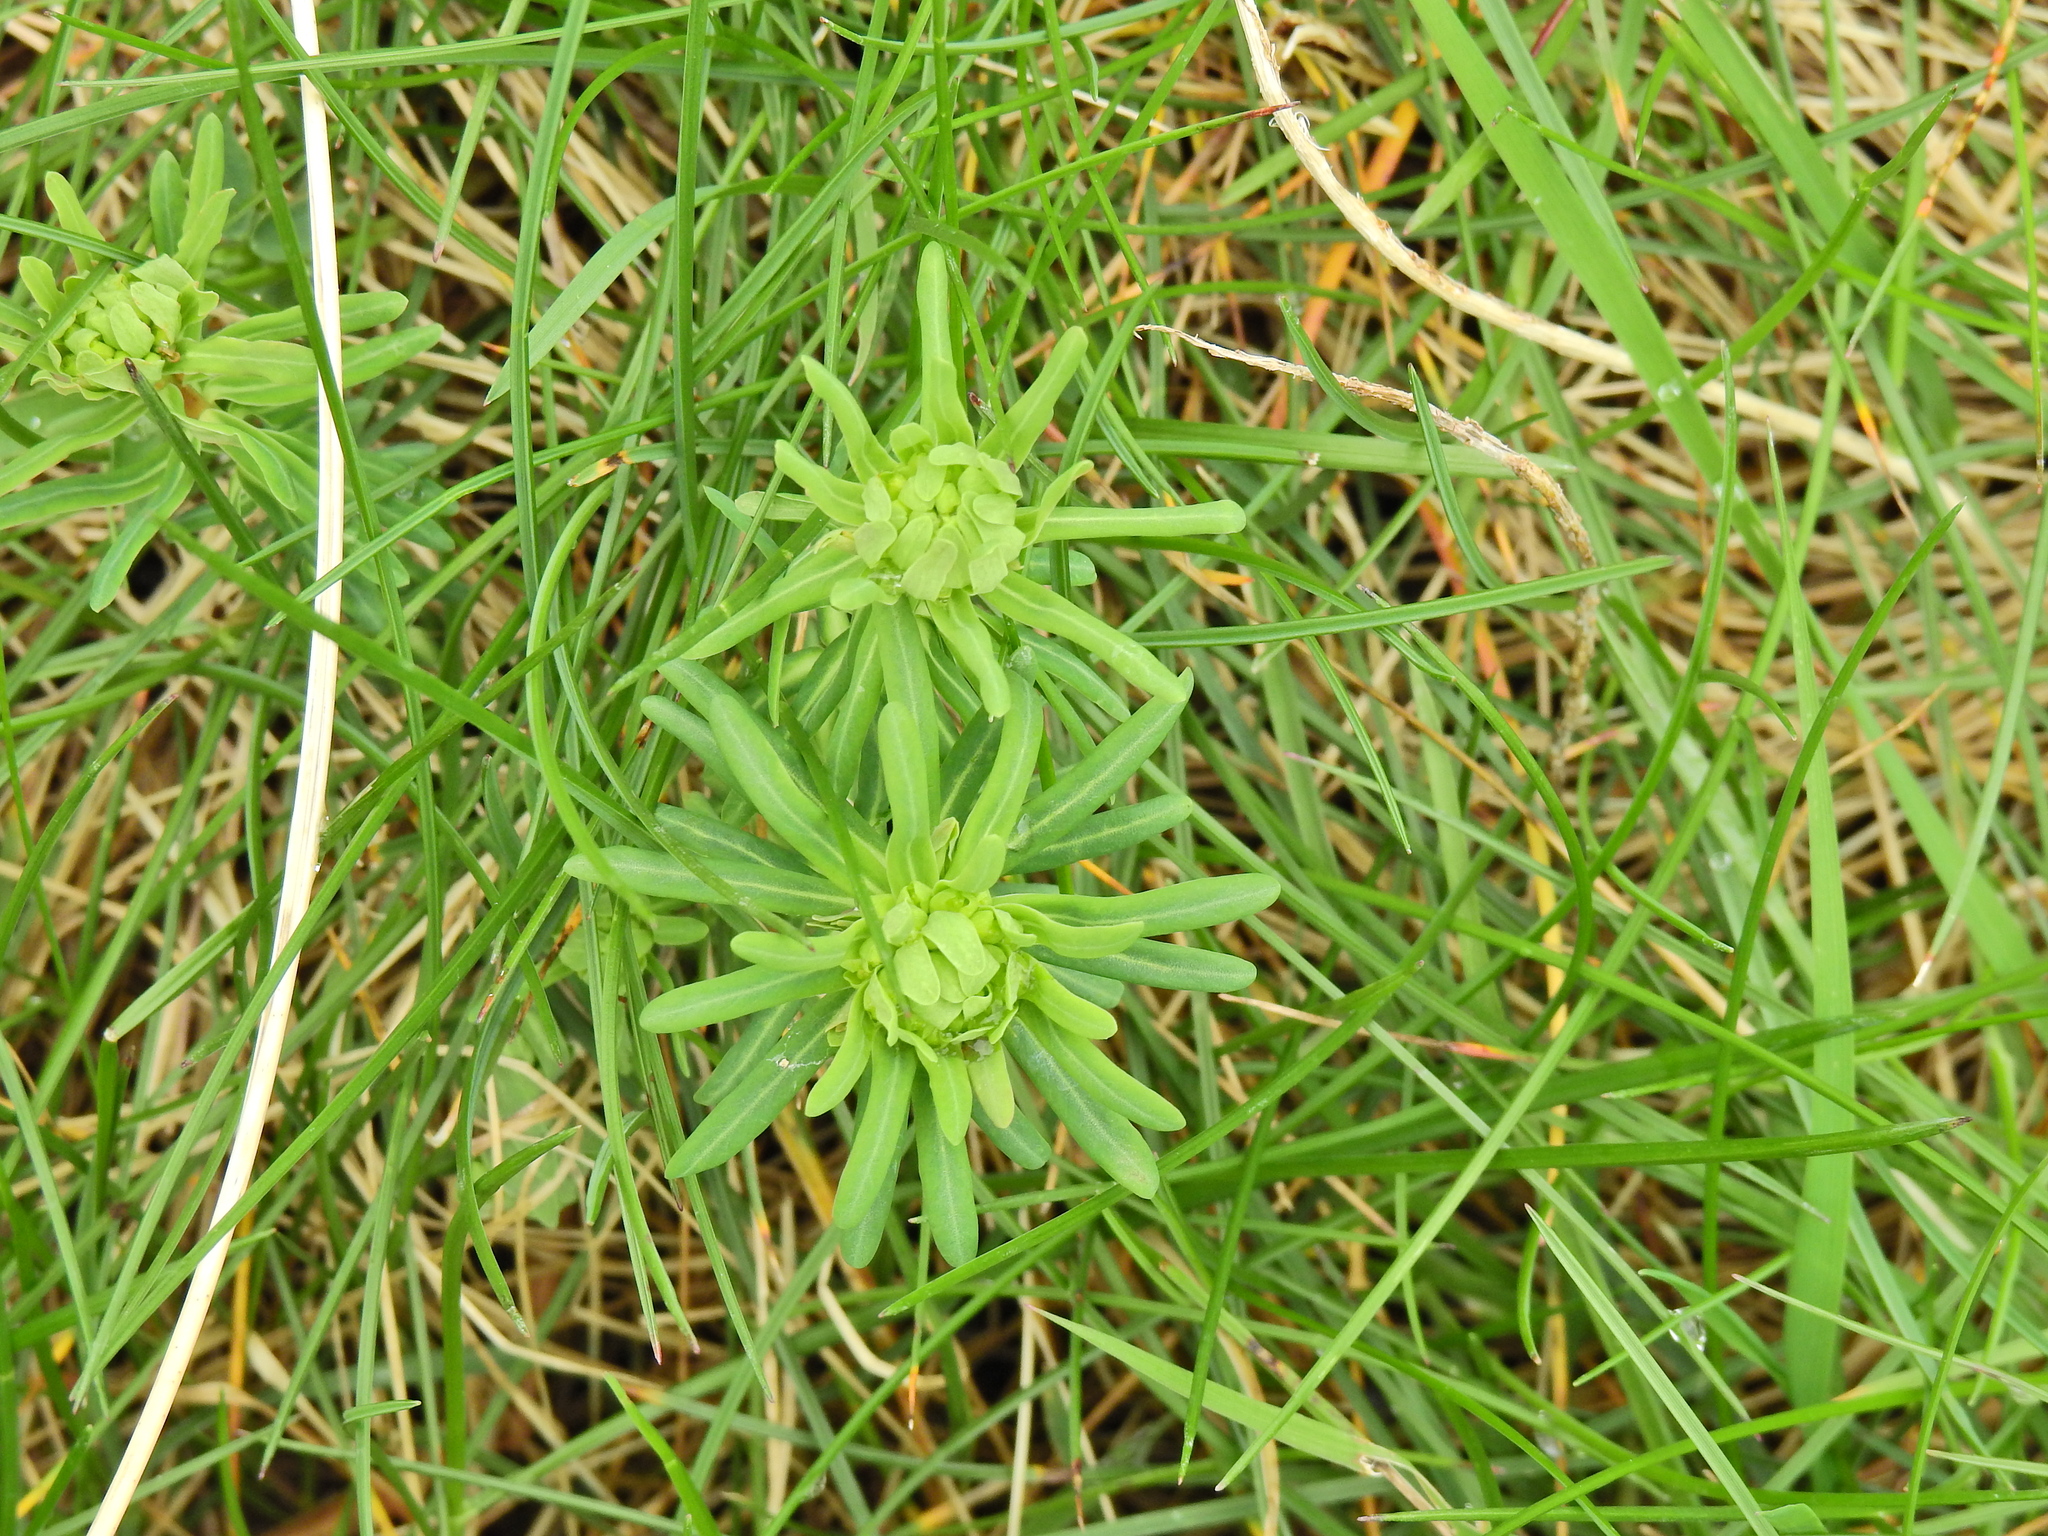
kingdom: Plantae
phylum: Tracheophyta
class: Magnoliopsida
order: Malpighiales
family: Euphorbiaceae
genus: Euphorbia
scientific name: Euphorbia cyparissias
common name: Cypress spurge
